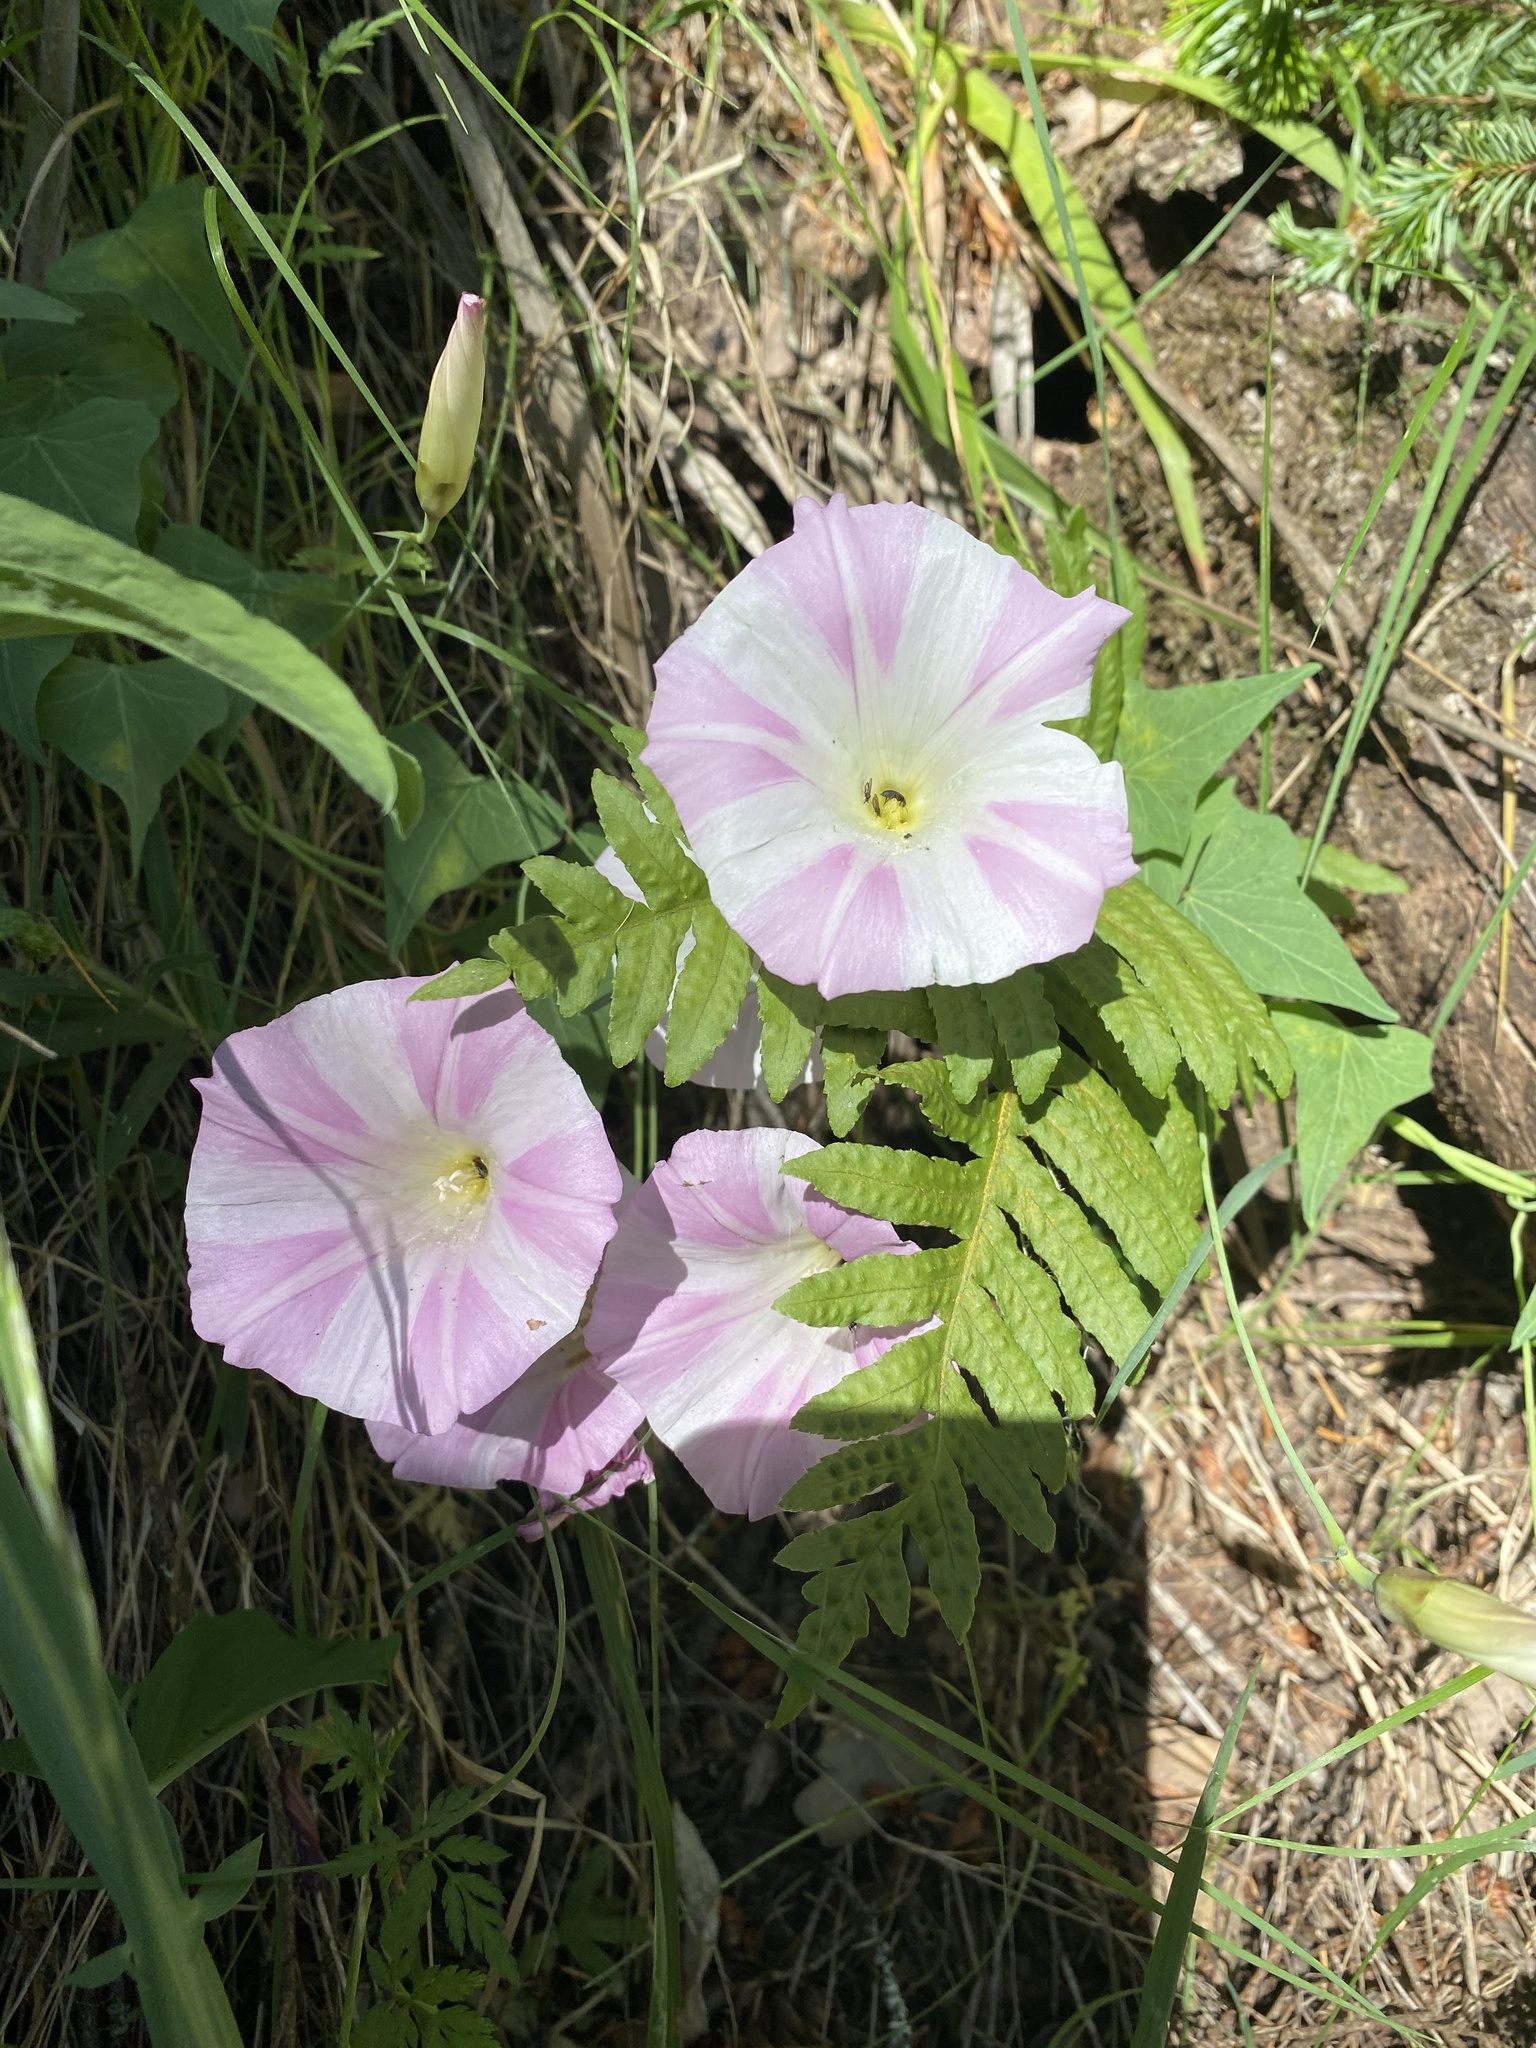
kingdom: Plantae
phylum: Tracheophyta
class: Magnoliopsida
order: Solanales
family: Convolvulaceae
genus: Convolvulus
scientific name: Convolvulus arvensis
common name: Field bindweed
